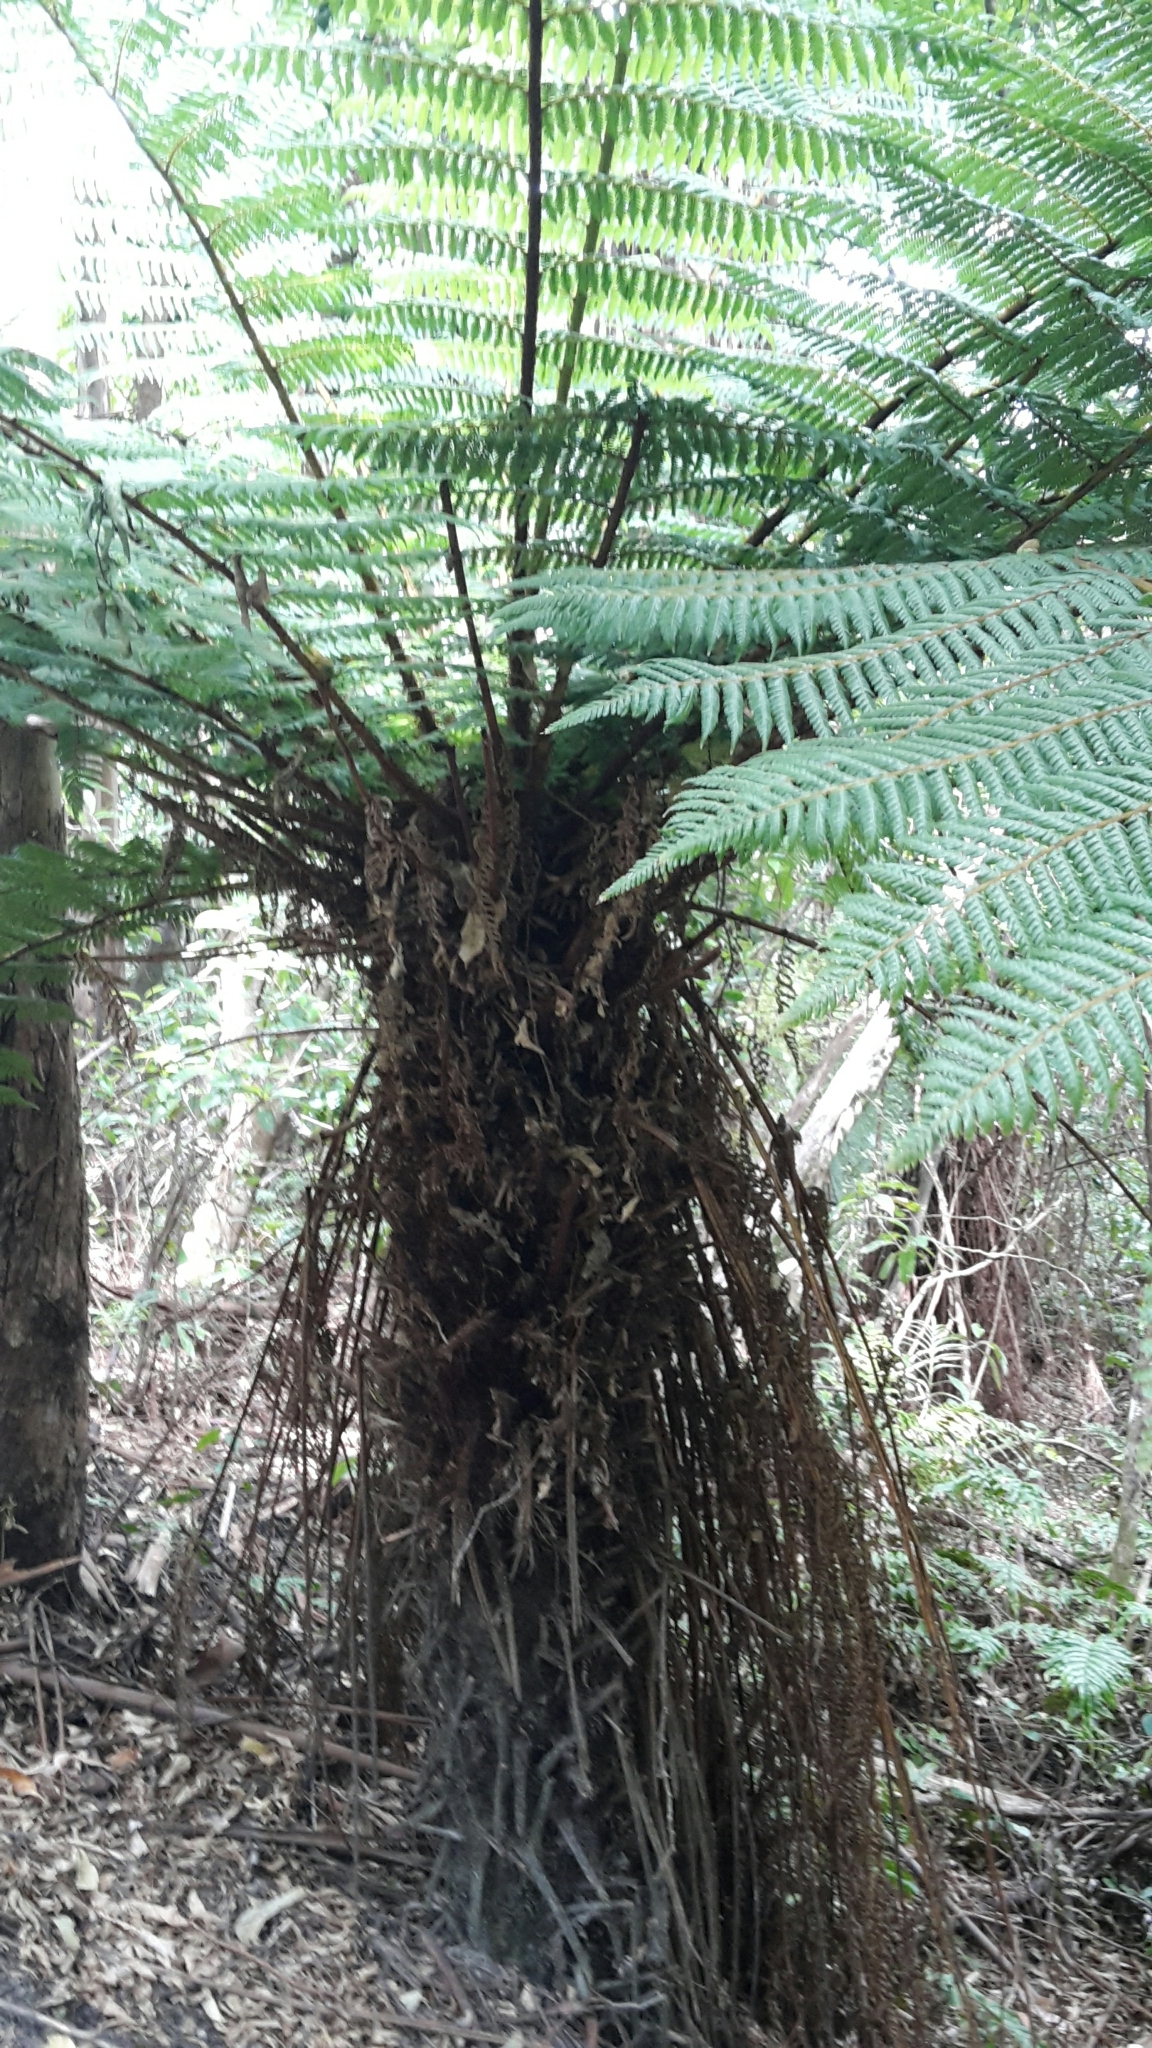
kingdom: Plantae
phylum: Tracheophyta
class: Polypodiopsida
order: Cyatheales
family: Cyatheaceae
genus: Alsophila
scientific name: Alsophila smithii
